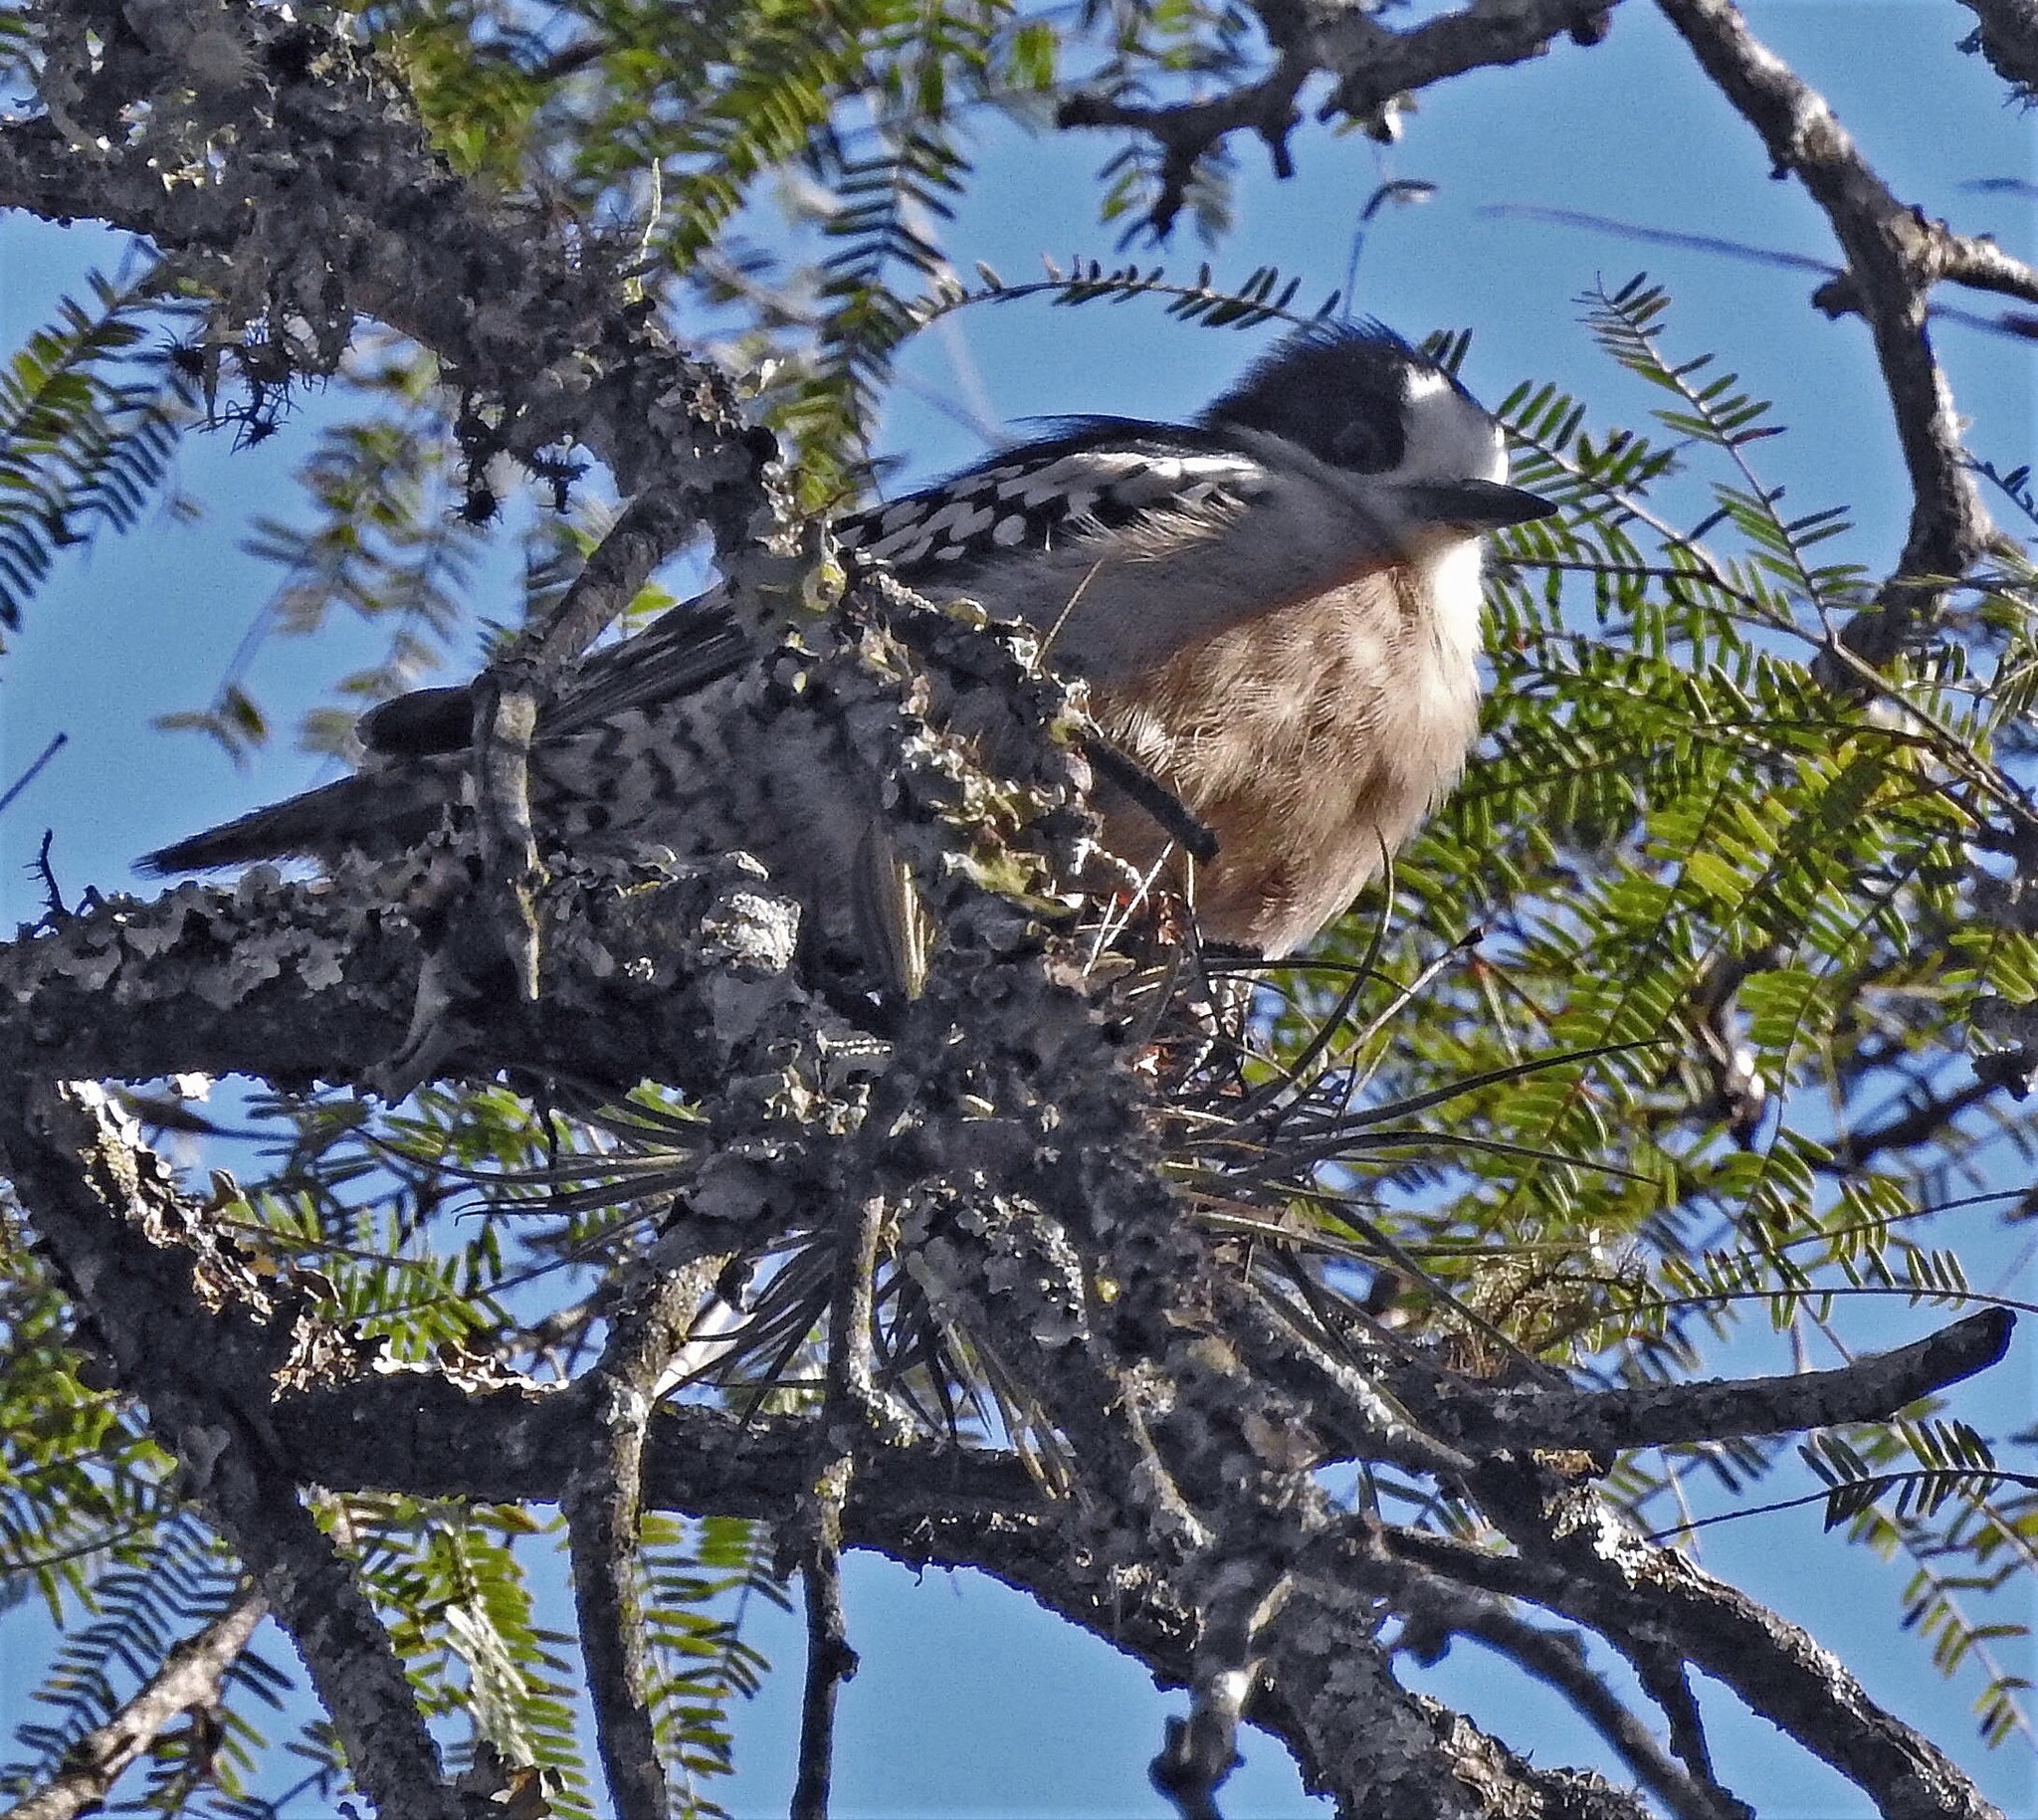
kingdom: Animalia
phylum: Chordata
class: Aves
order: Piciformes
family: Picidae
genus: Melanerpes
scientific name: Melanerpes cactorum
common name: White-fronted woodpecker
